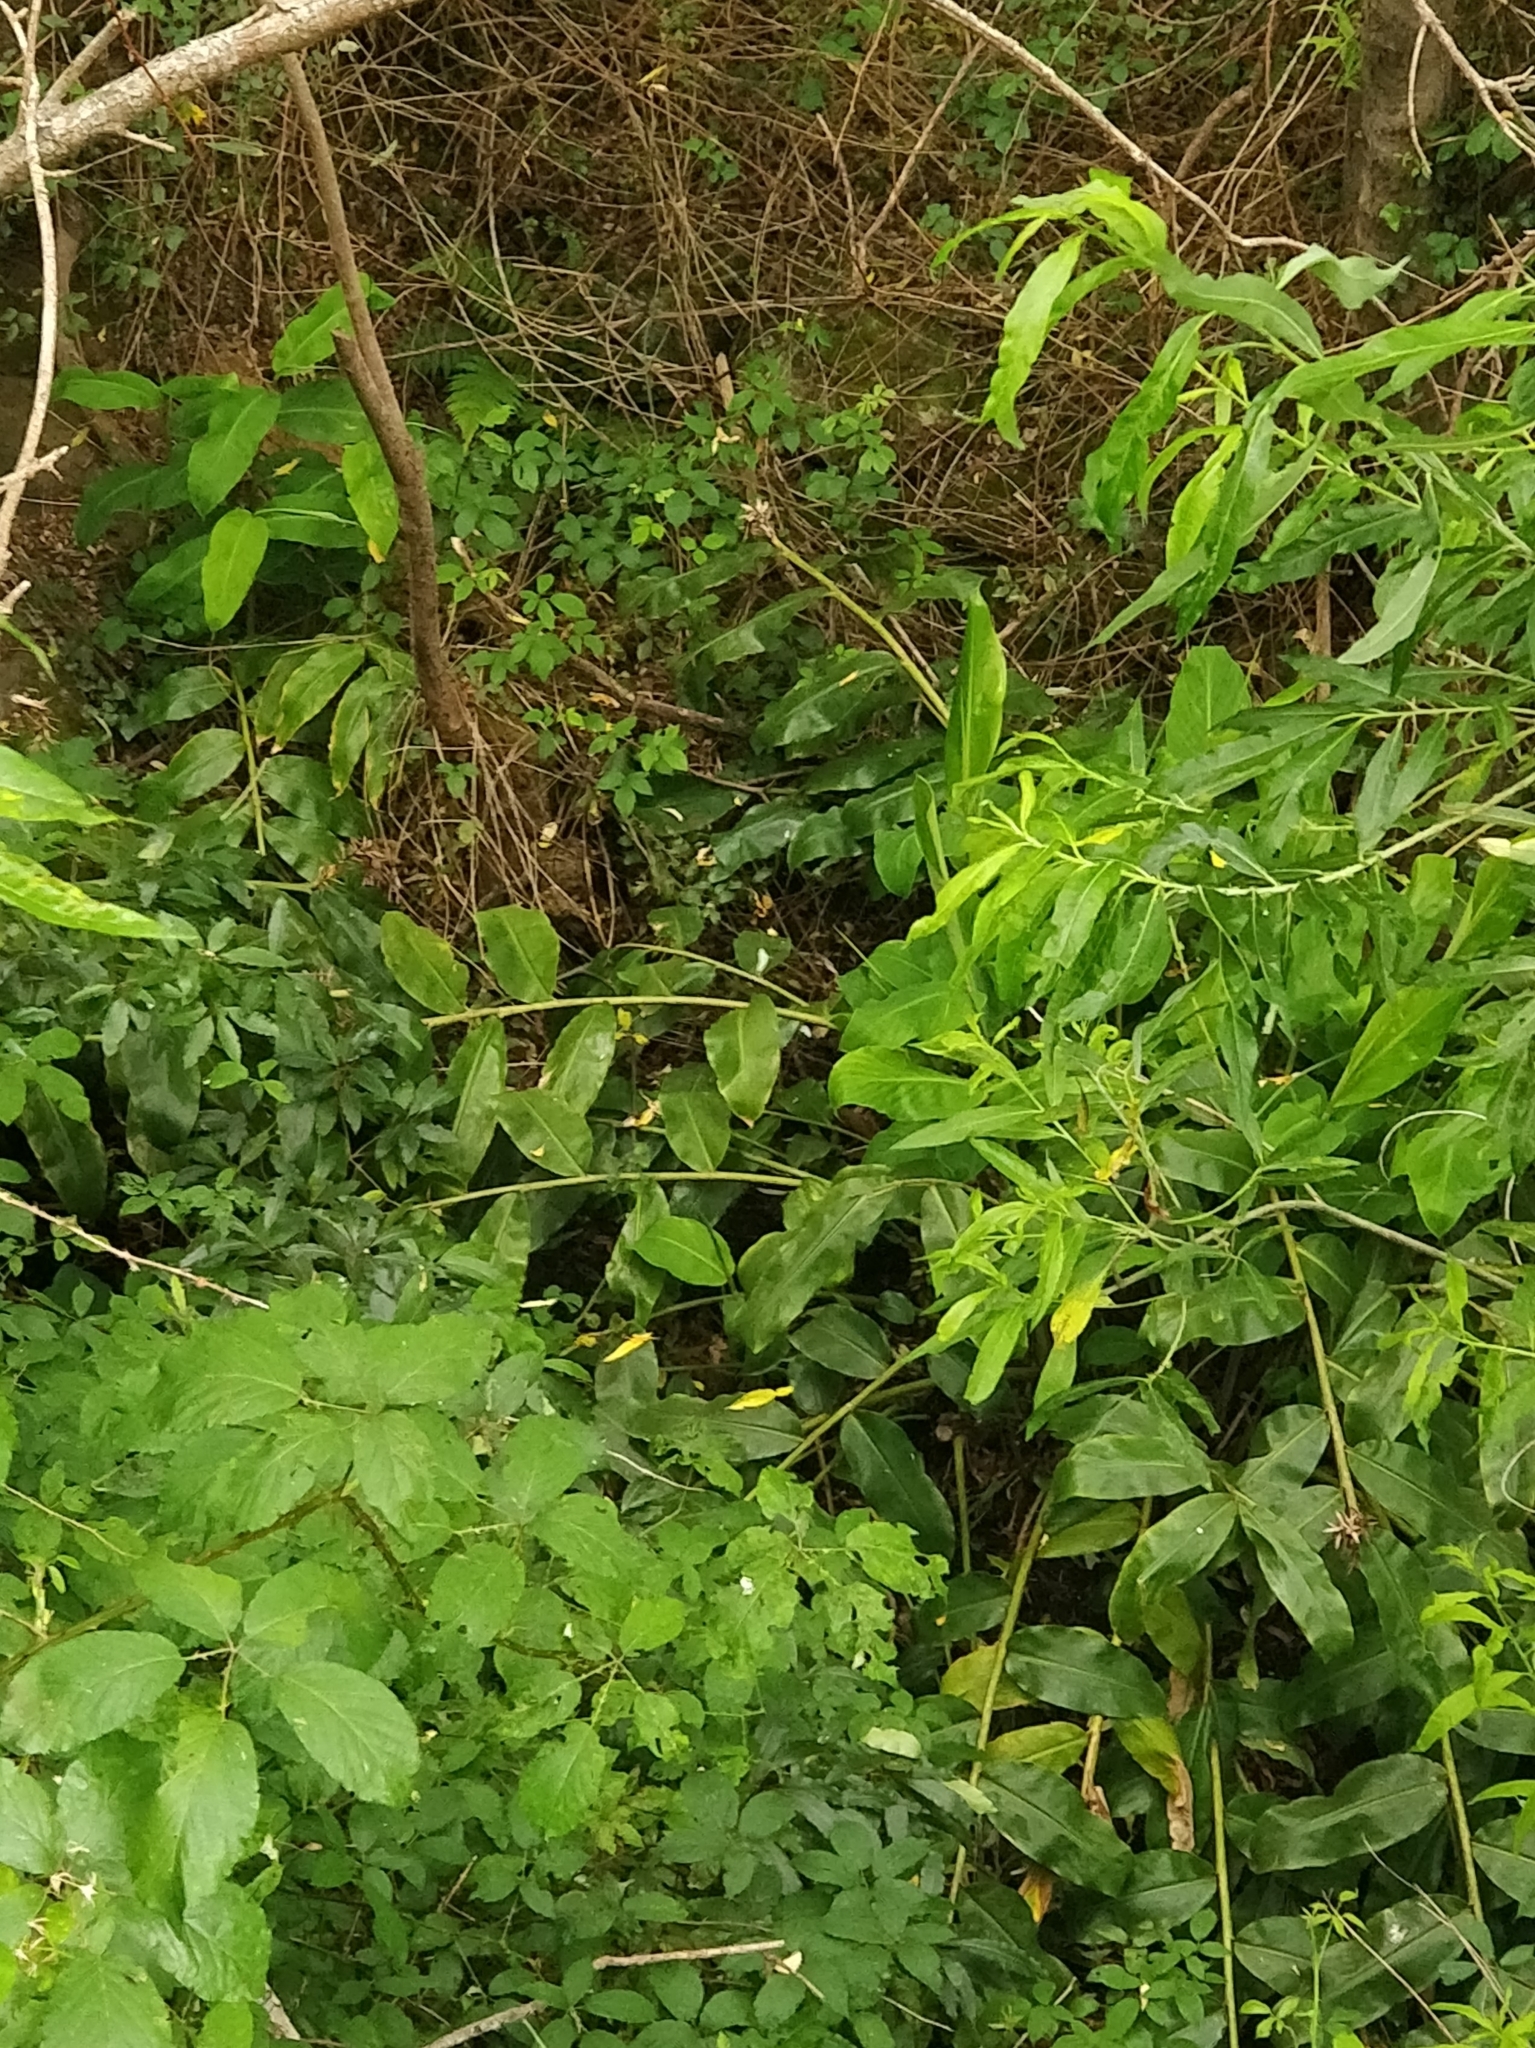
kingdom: Plantae
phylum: Tracheophyta
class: Liliopsida
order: Zingiberales
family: Zingiberaceae
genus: Hedychium
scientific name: Hedychium gardnerianum
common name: Himalayan ginger
